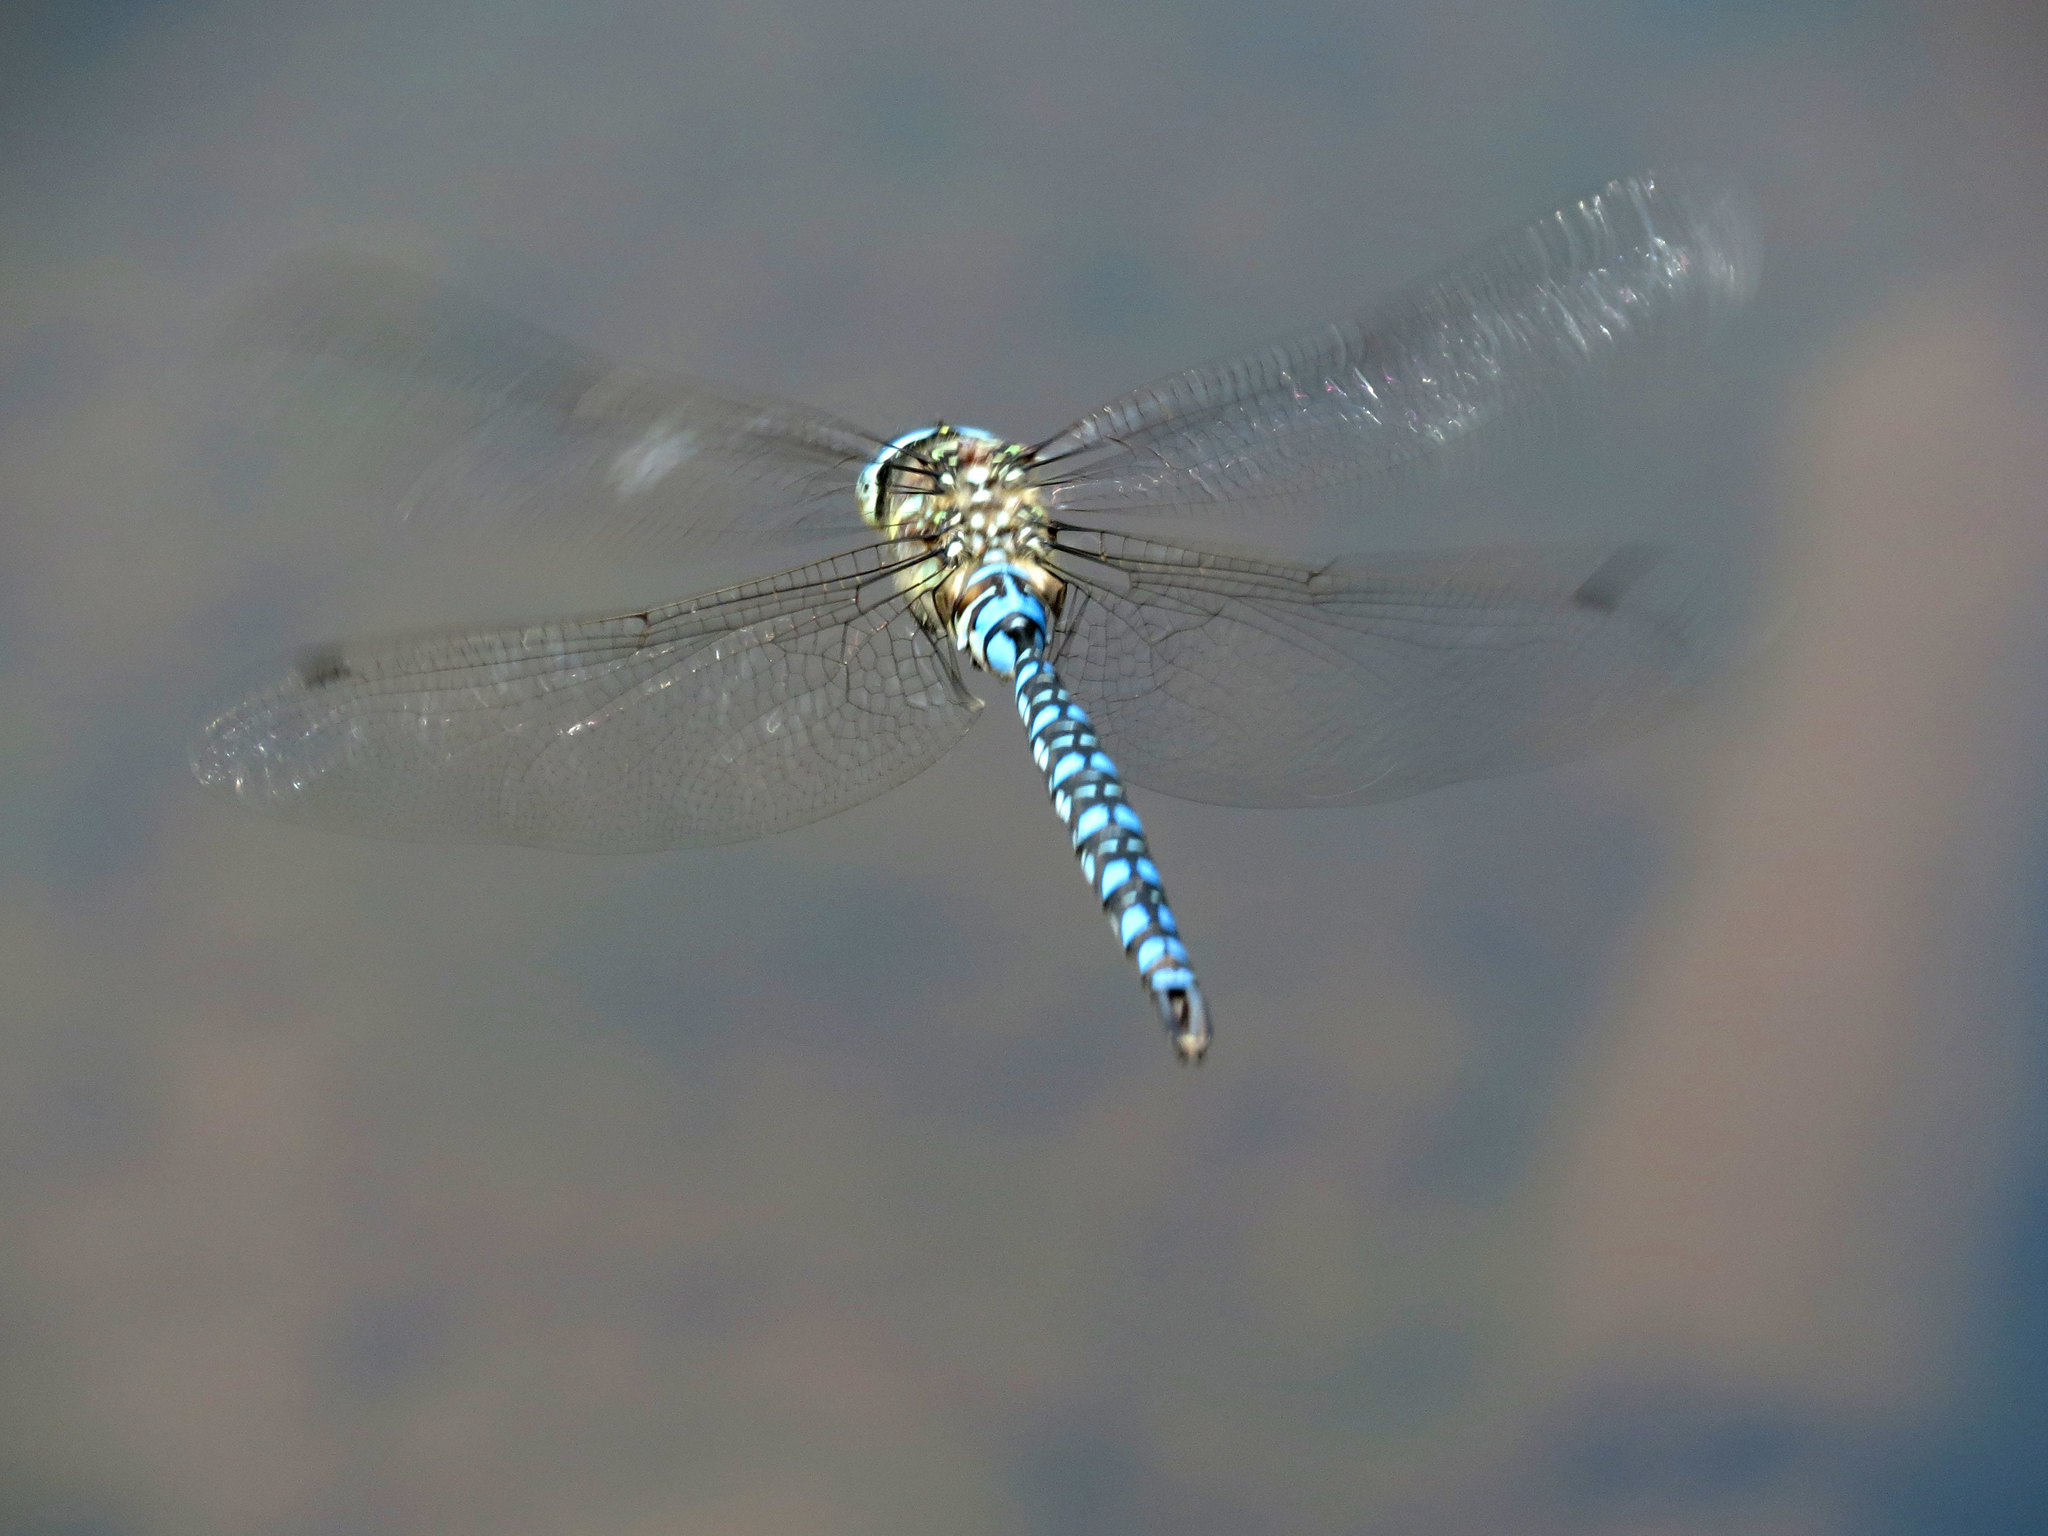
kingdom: Animalia
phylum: Arthropoda
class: Insecta
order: Odonata
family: Aeshnidae
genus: Aeshna
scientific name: Aeshna palmata
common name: Paddle-tailed darner
